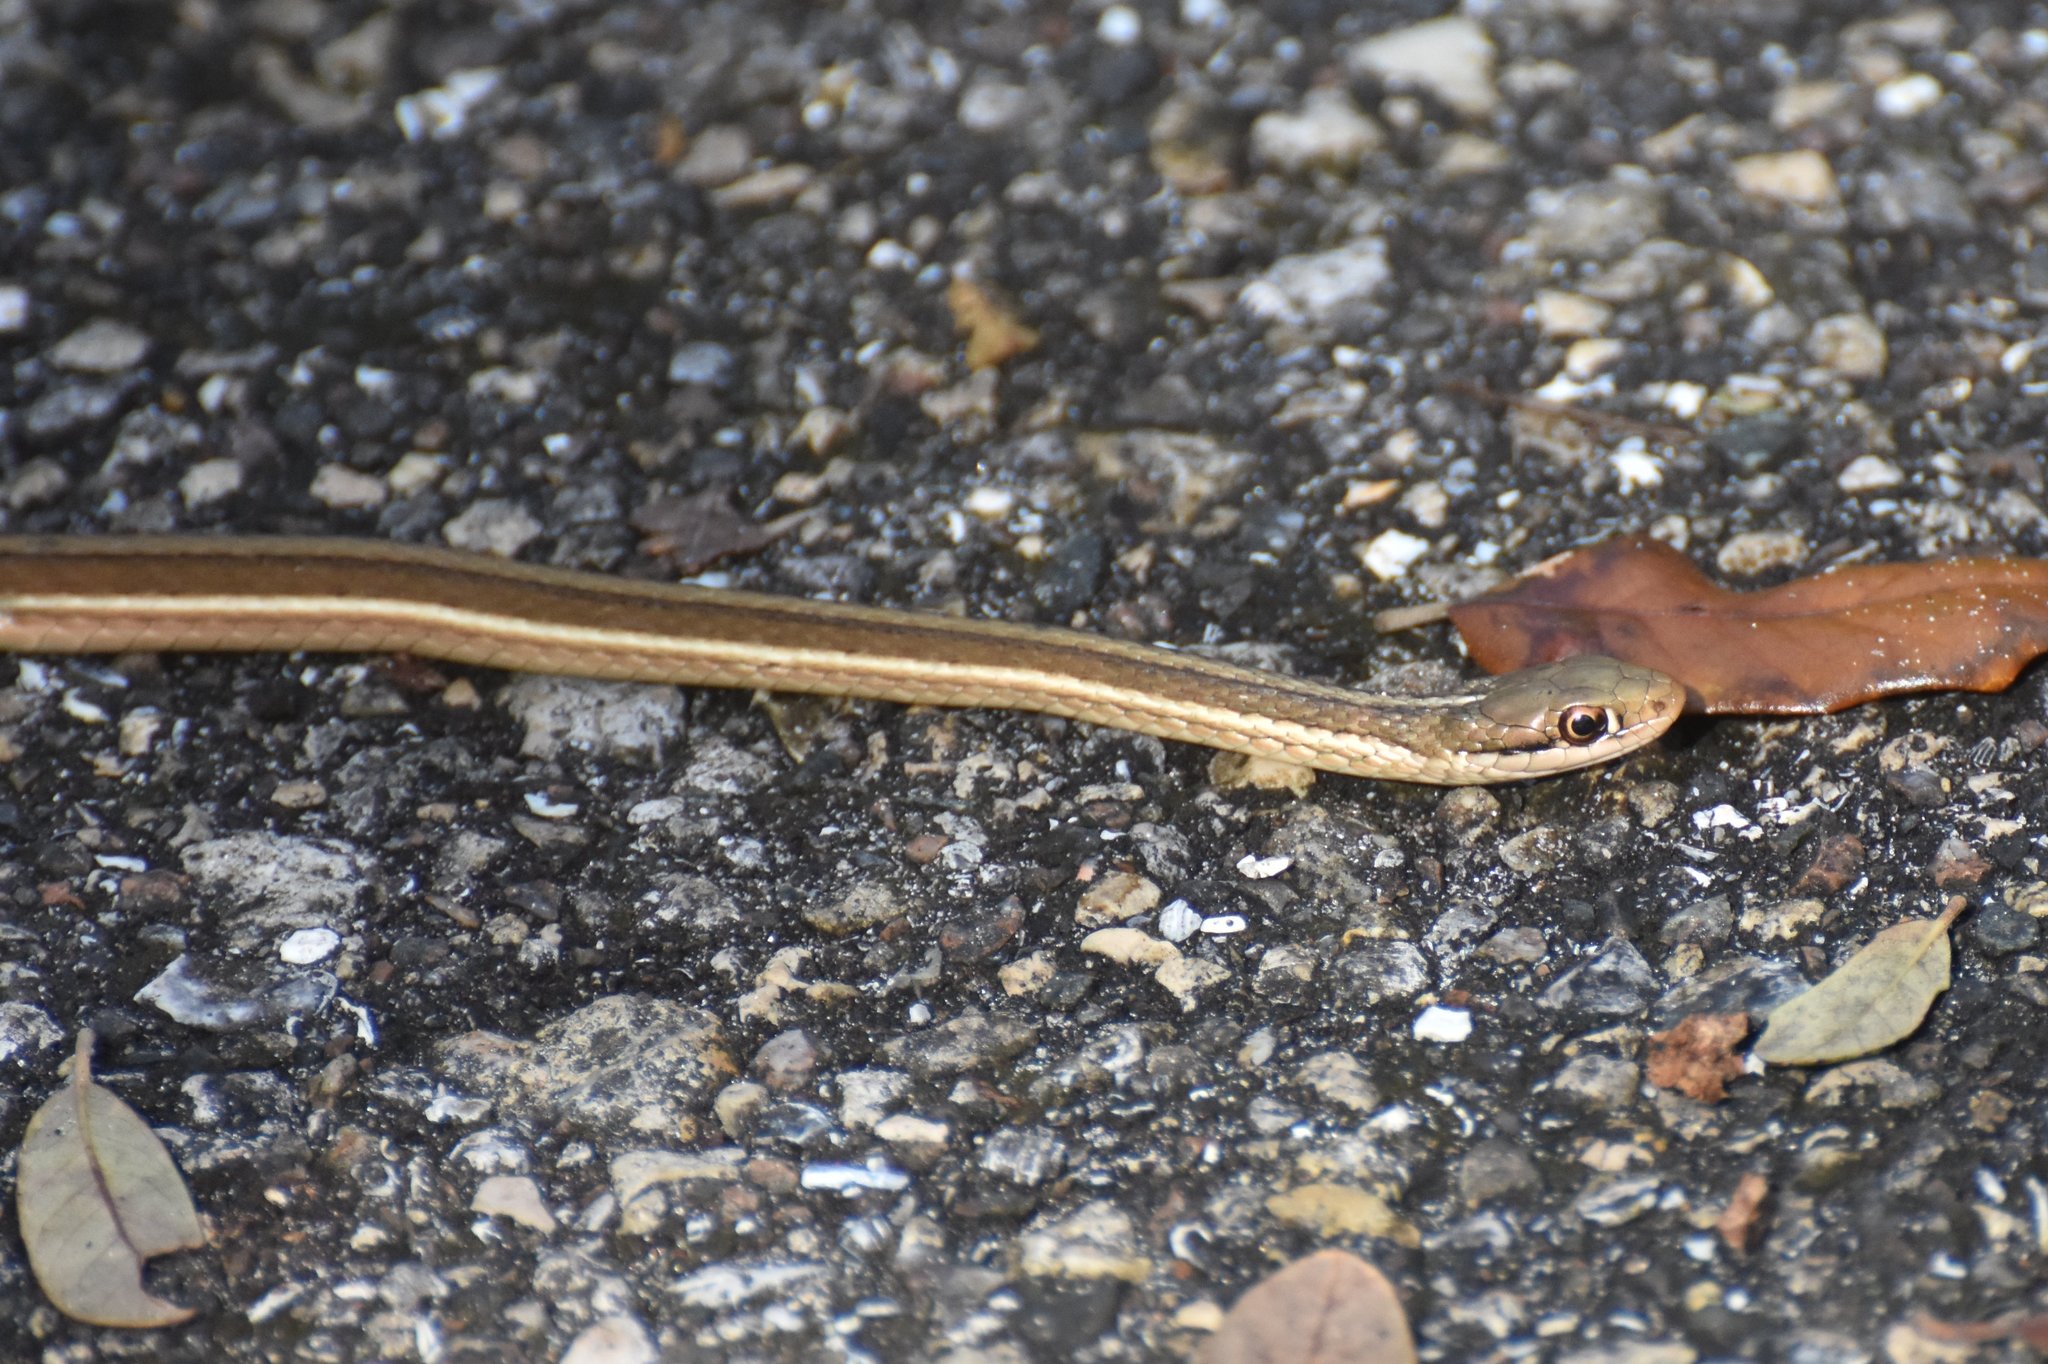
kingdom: Animalia
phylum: Chordata
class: Squamata
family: Colubridae
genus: Thamnophis
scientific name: Thamnophis saurita
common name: Eastern ribbonsnake
